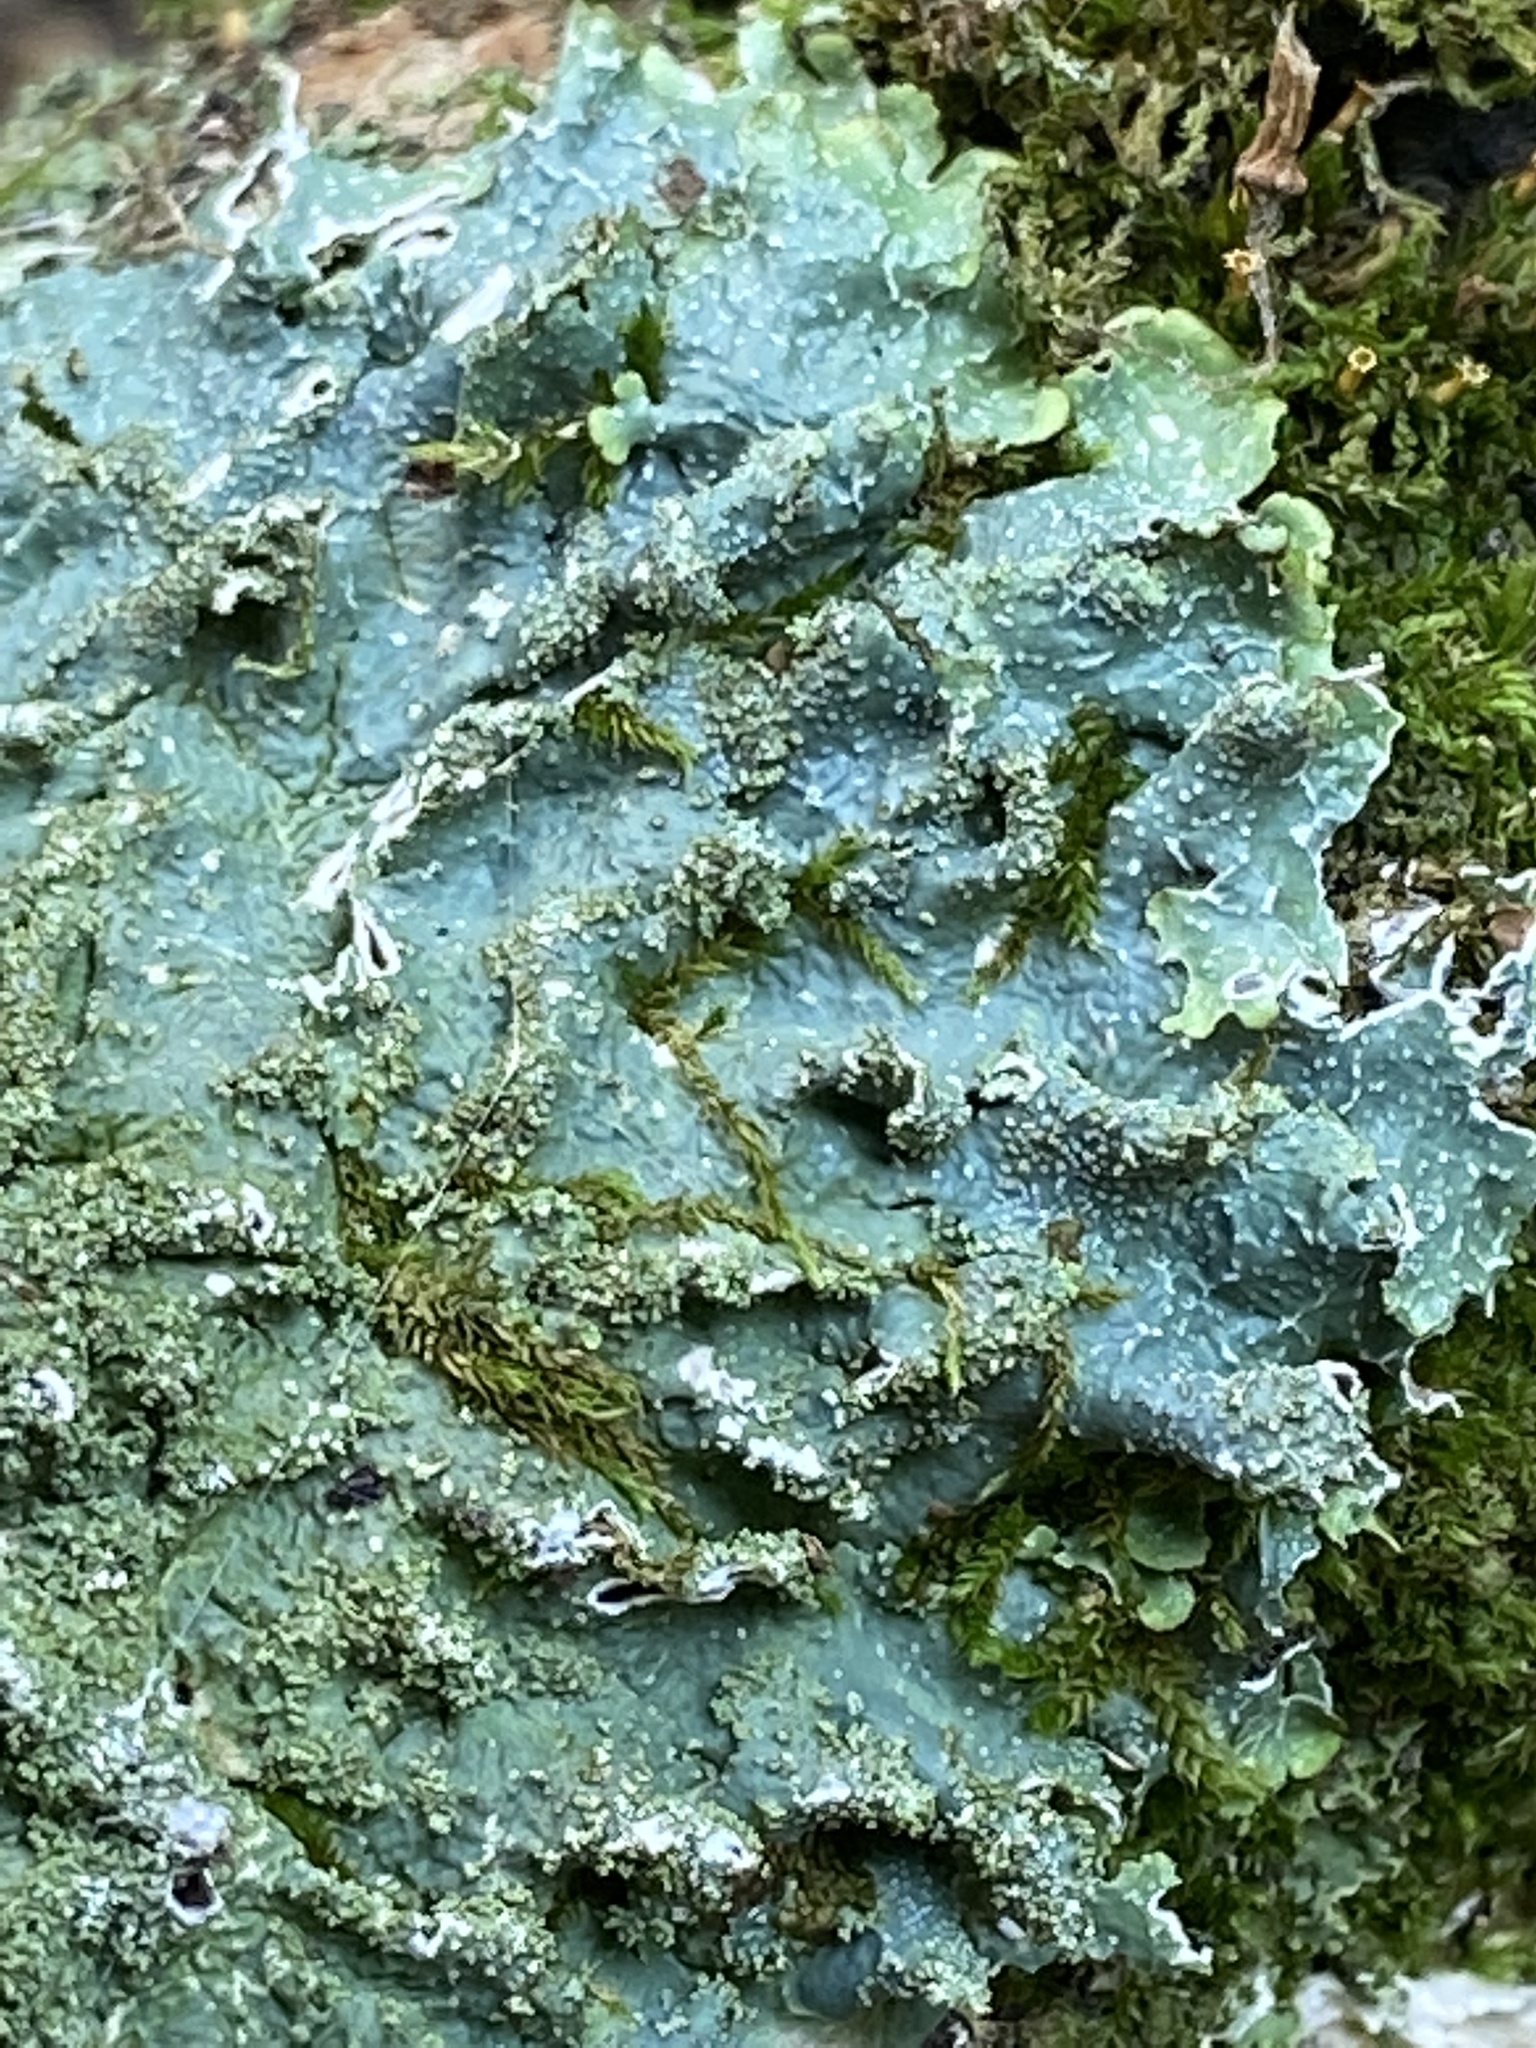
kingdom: Fungi
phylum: Ascomycota
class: Lecanoromycetes
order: Lecanorales
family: Parmeliaceae
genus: Punctelia
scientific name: Punctelia rudecta
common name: Rough speckled shield lichen
